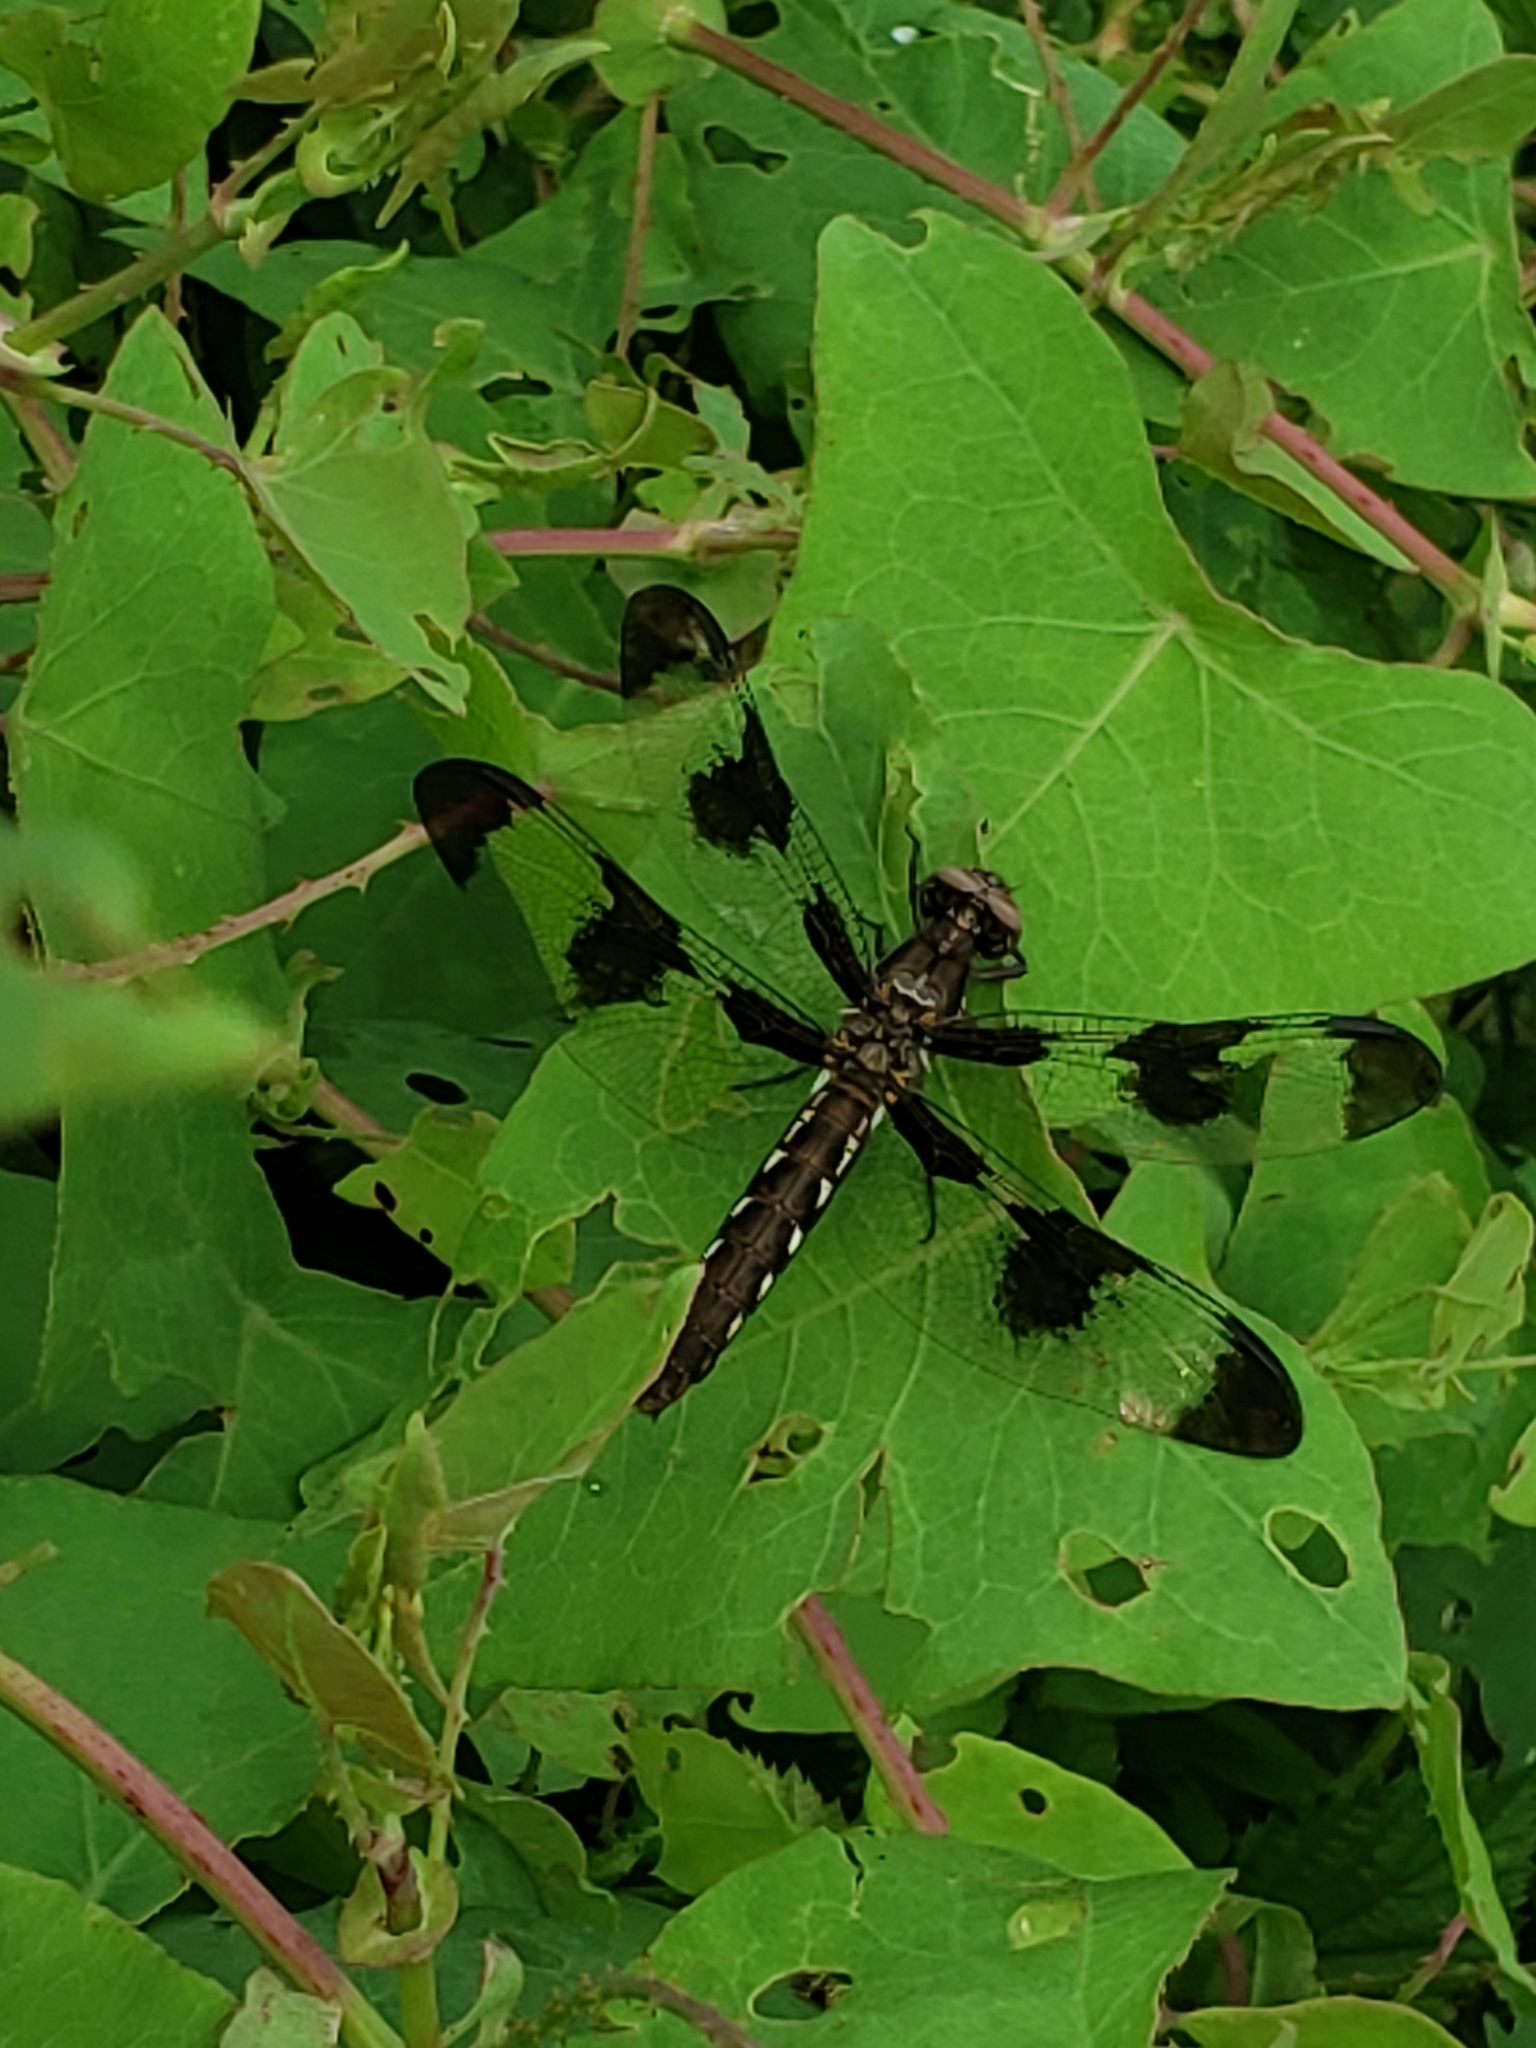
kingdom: Animalia
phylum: Arthropoda
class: Insecta
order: Odonata
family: Libellulidae
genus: Plathemis
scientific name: Plathemis lydia
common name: Common whitetail
